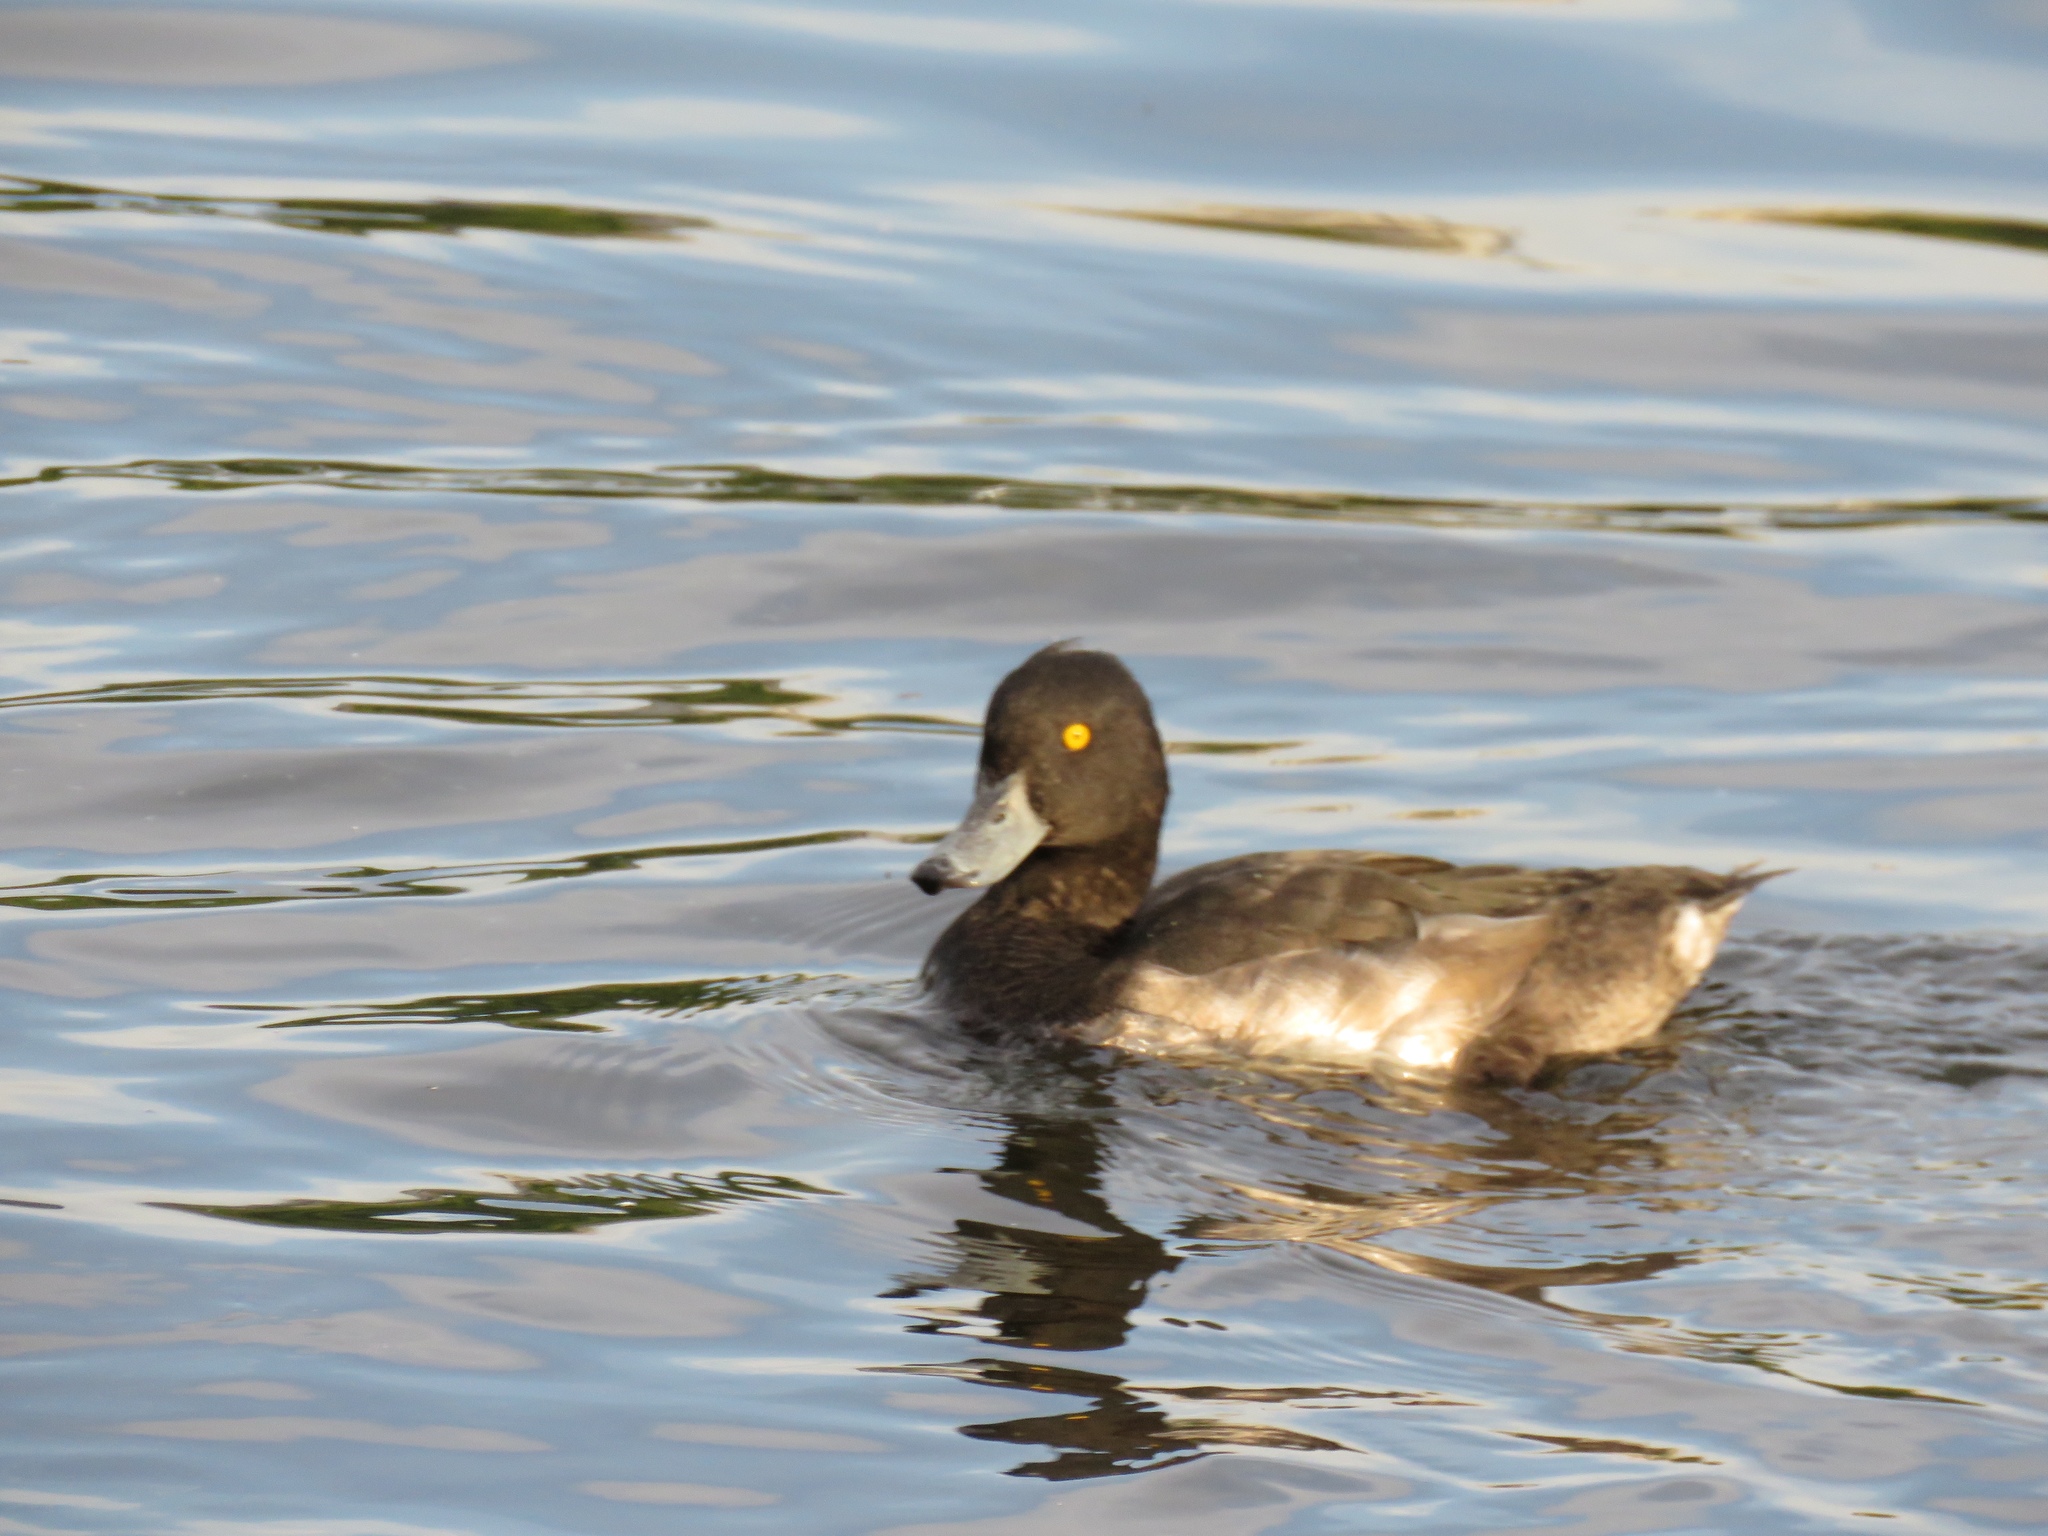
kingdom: Animalia
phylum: Chordata
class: Aves
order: Anseriformes
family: Anatidae
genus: Aythya
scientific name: Aythya fuligula
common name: Tufted duck
